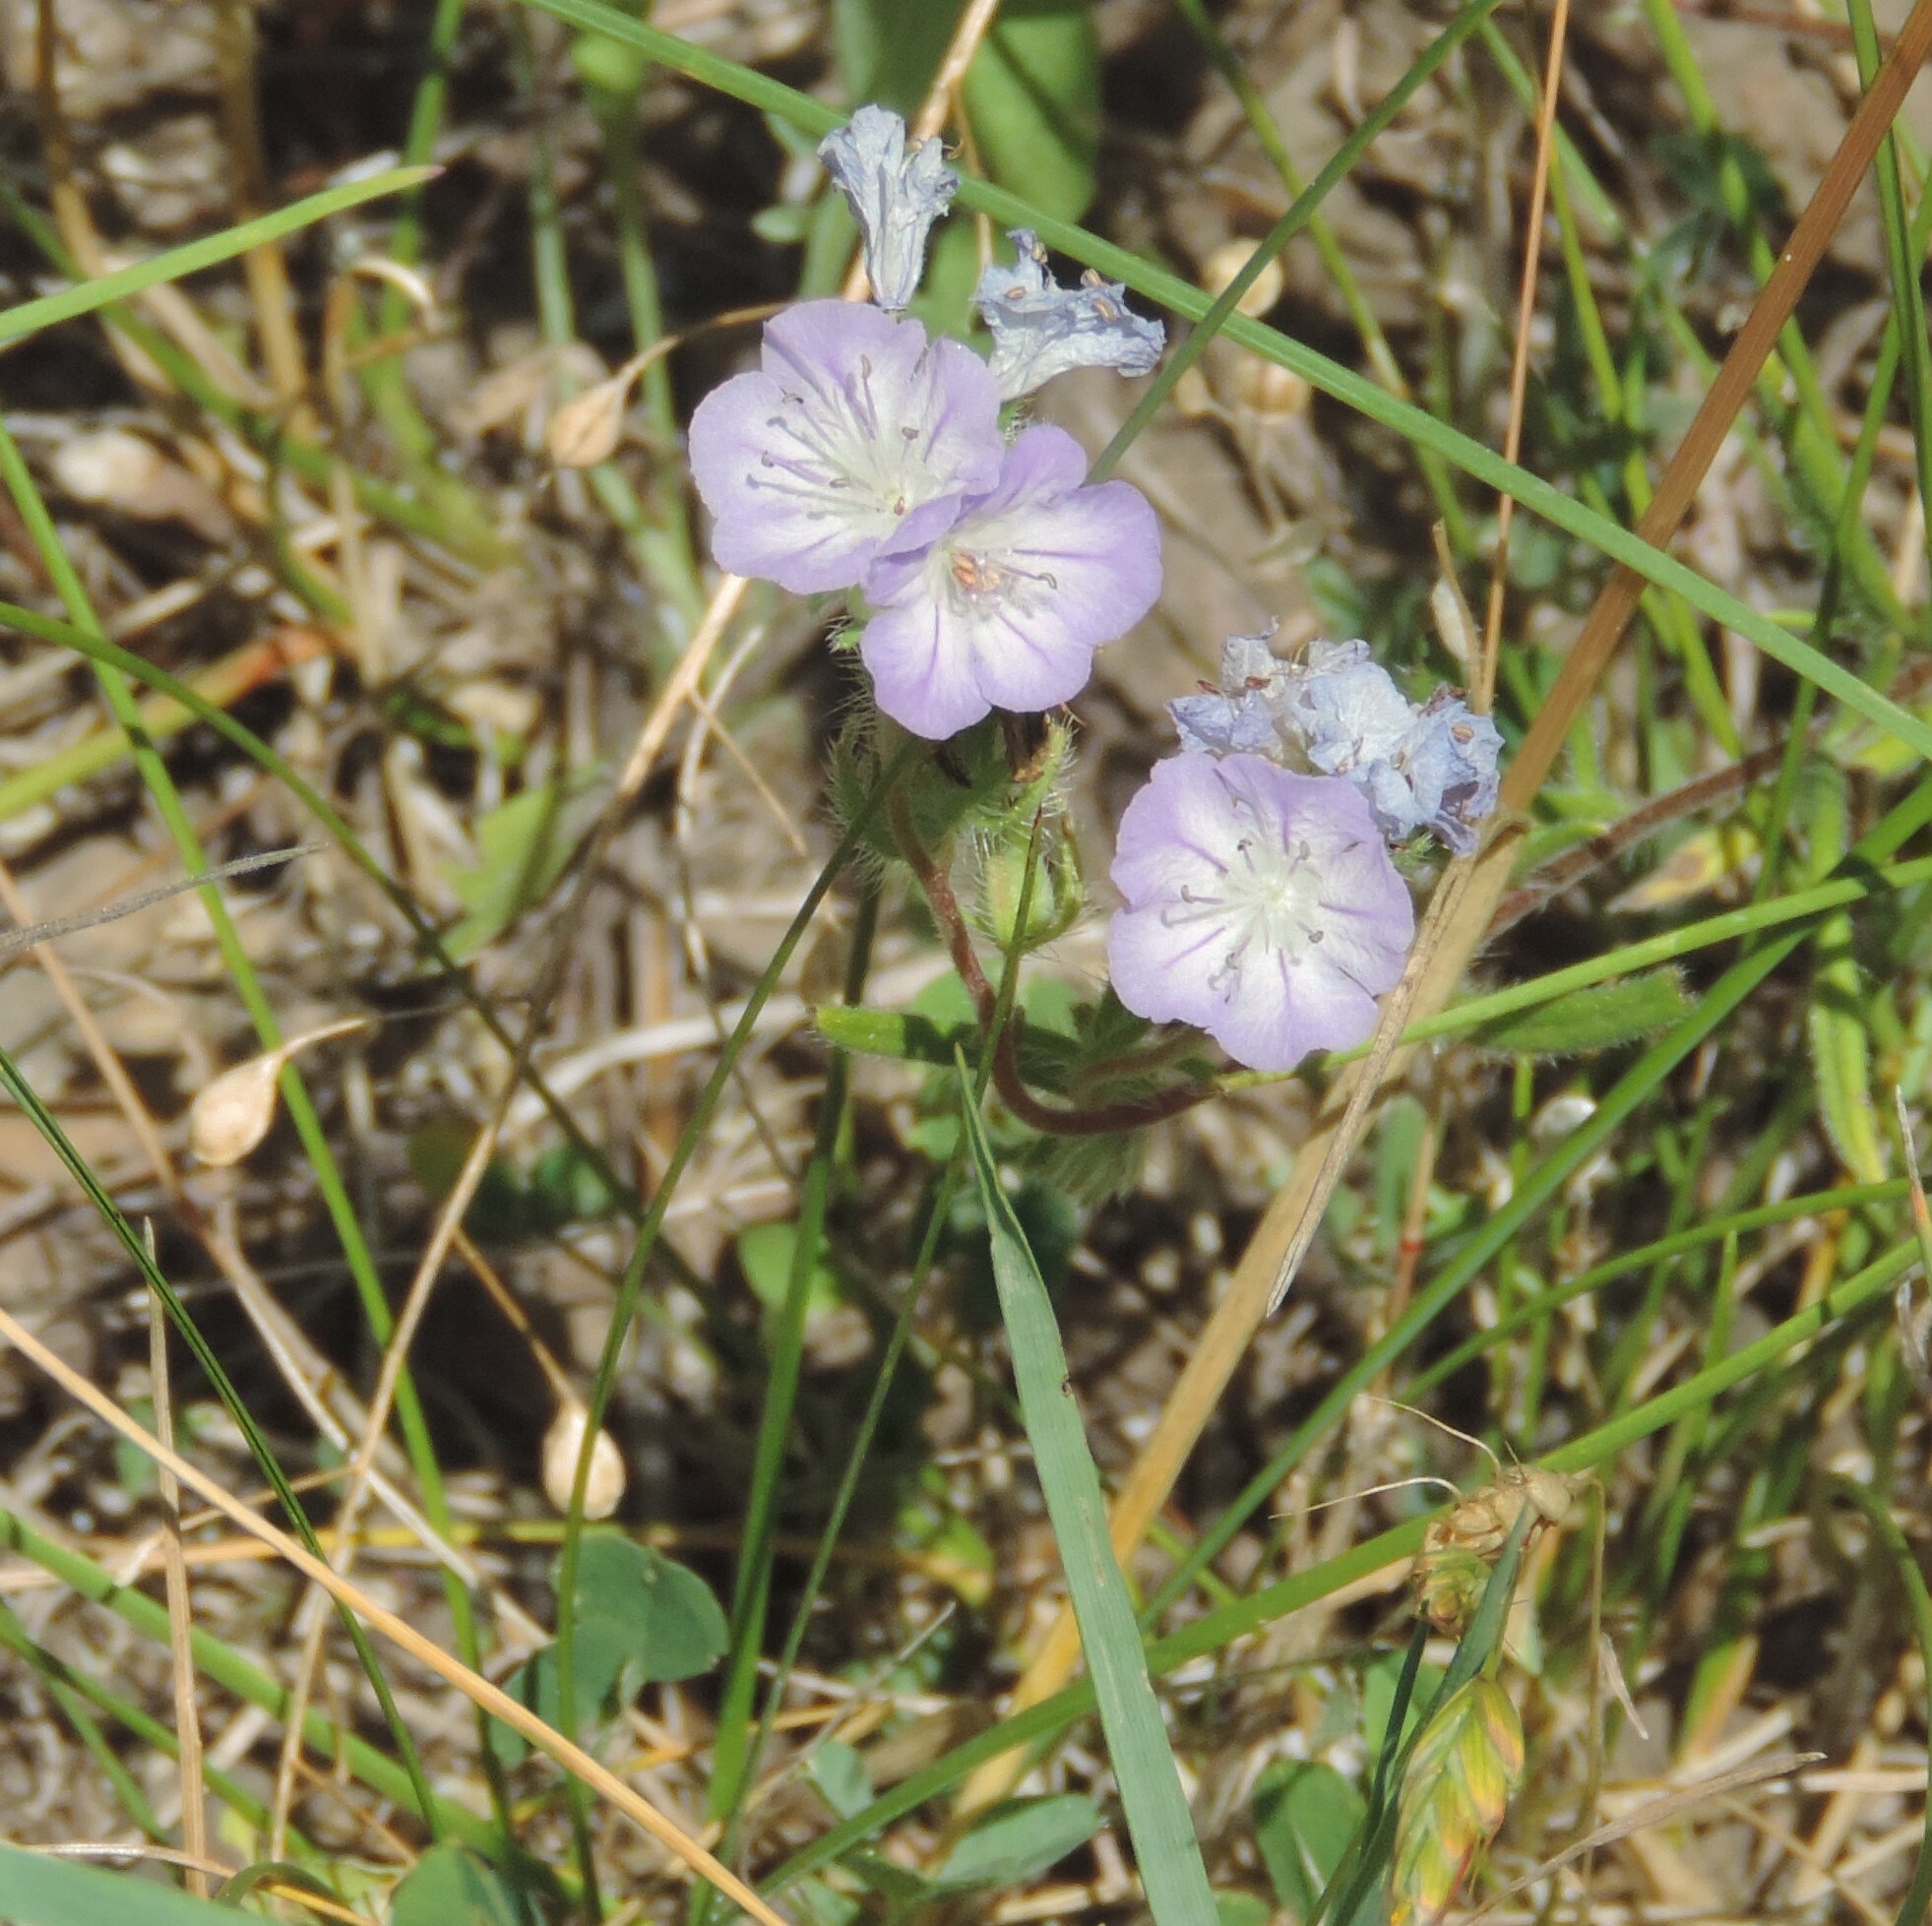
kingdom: Plantae
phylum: Tracheophyta
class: Magnoliopsida
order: Boraginales
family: Hydrophyllaceae
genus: Phacelia
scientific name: Phacelia linearis
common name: Linear-leaved phacelia
